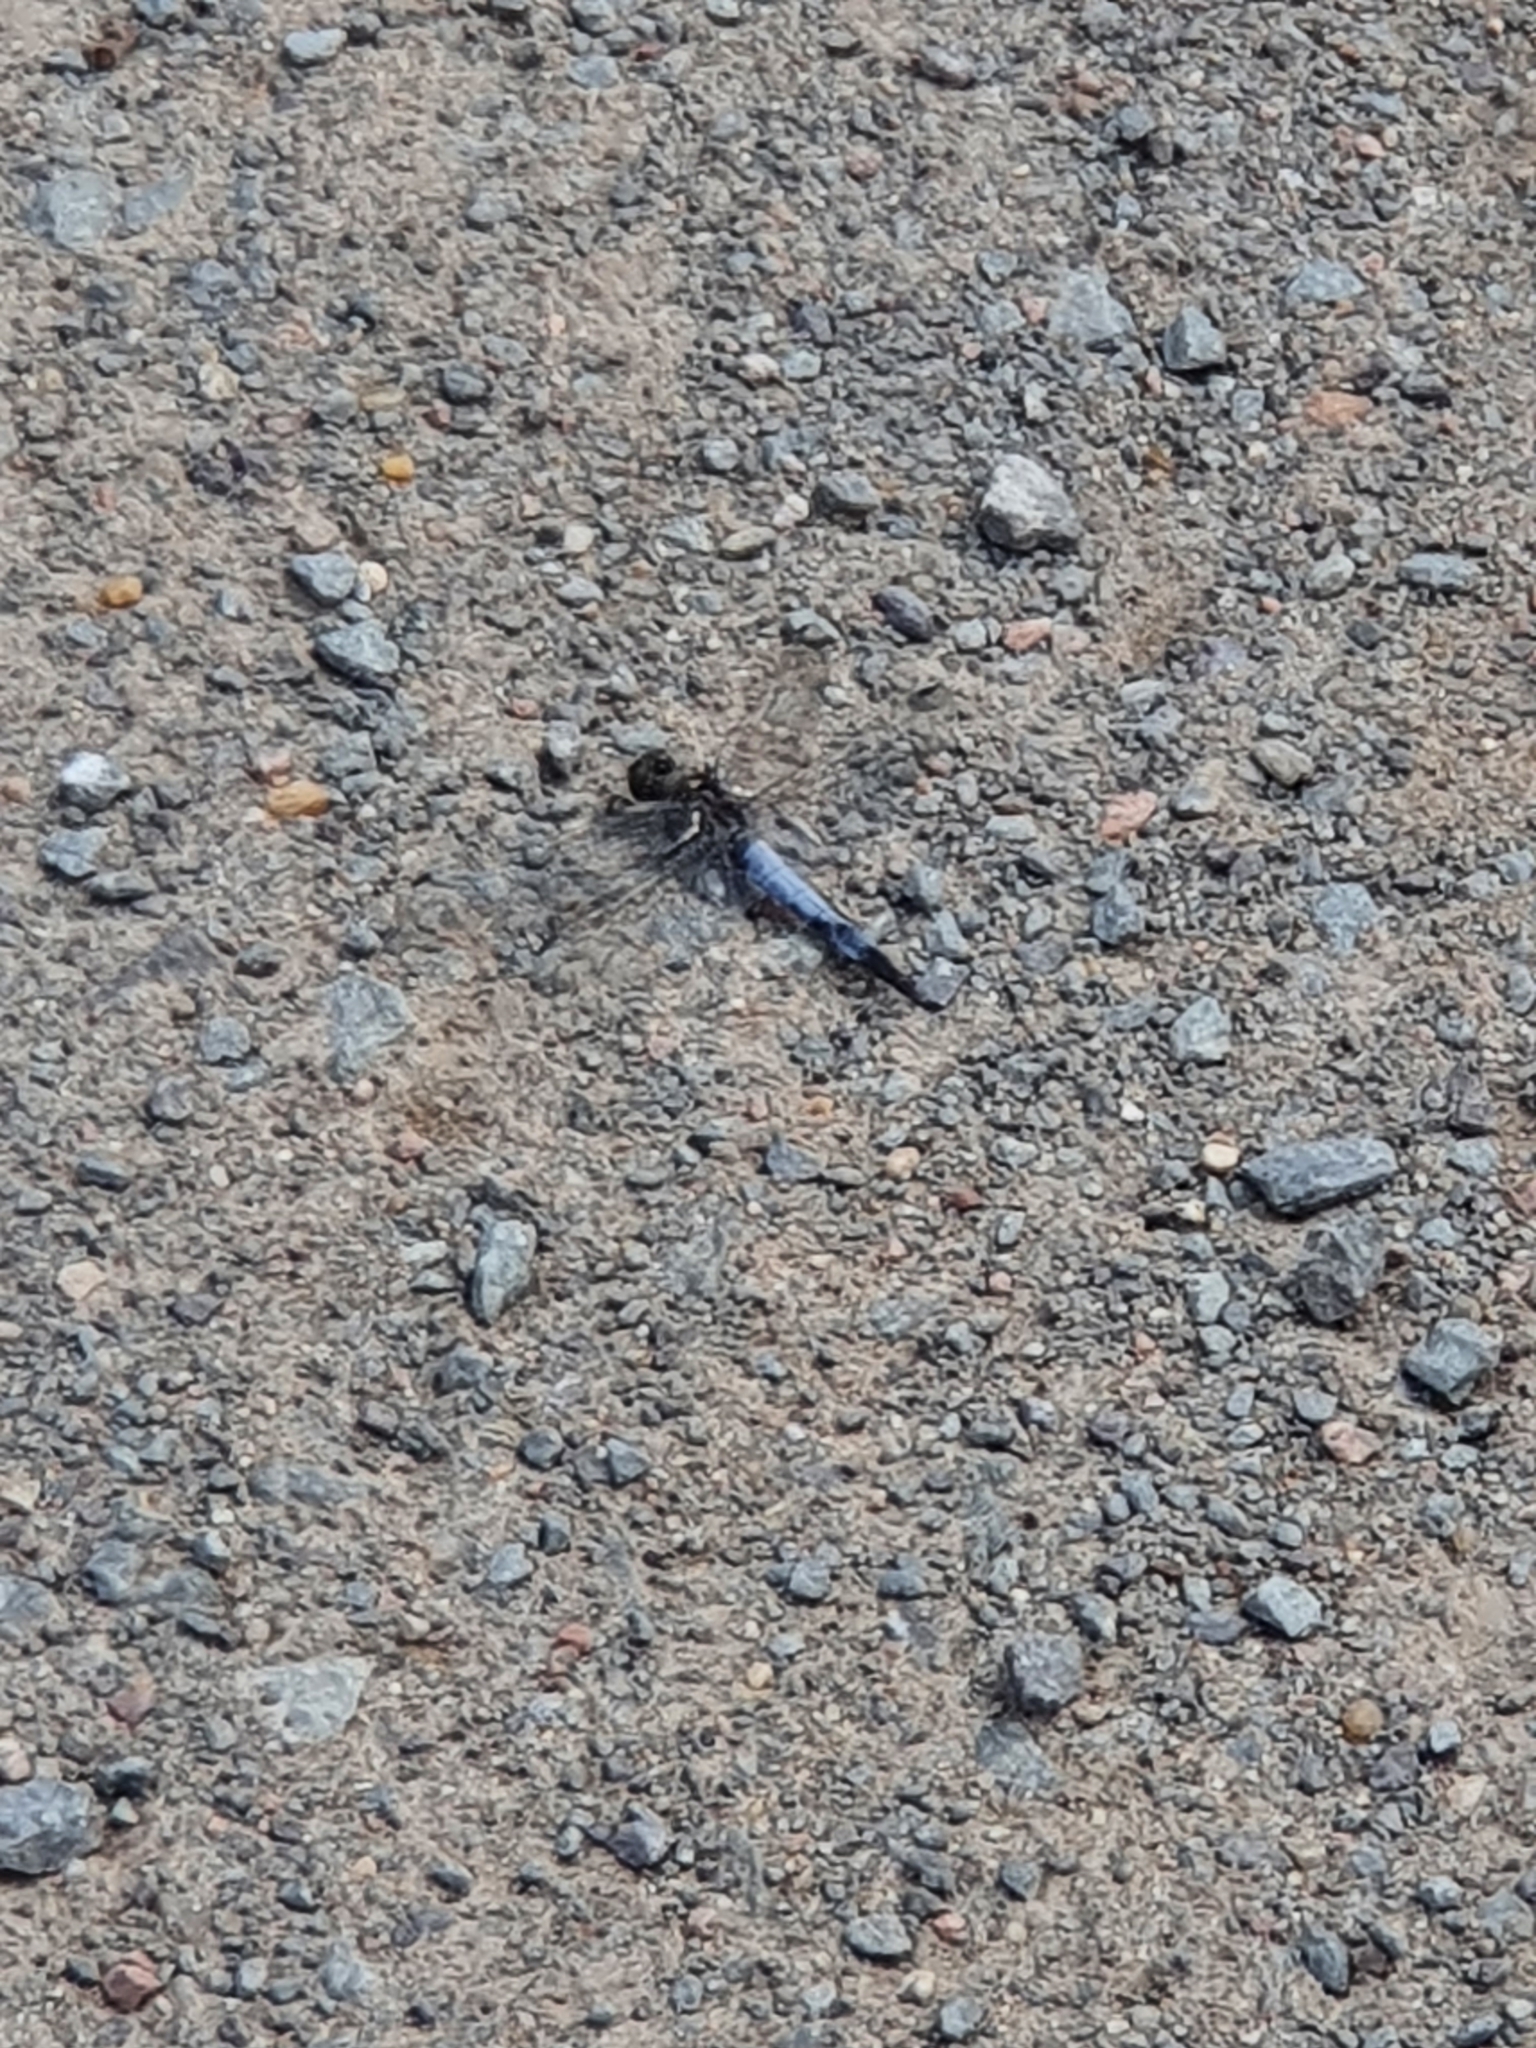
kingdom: Animalia
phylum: Arthropoda
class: Insecta
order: Odonata
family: Libellulidae
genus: Orthetrum
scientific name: Orthetrum cancellatum
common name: Black-tailed skimmer
